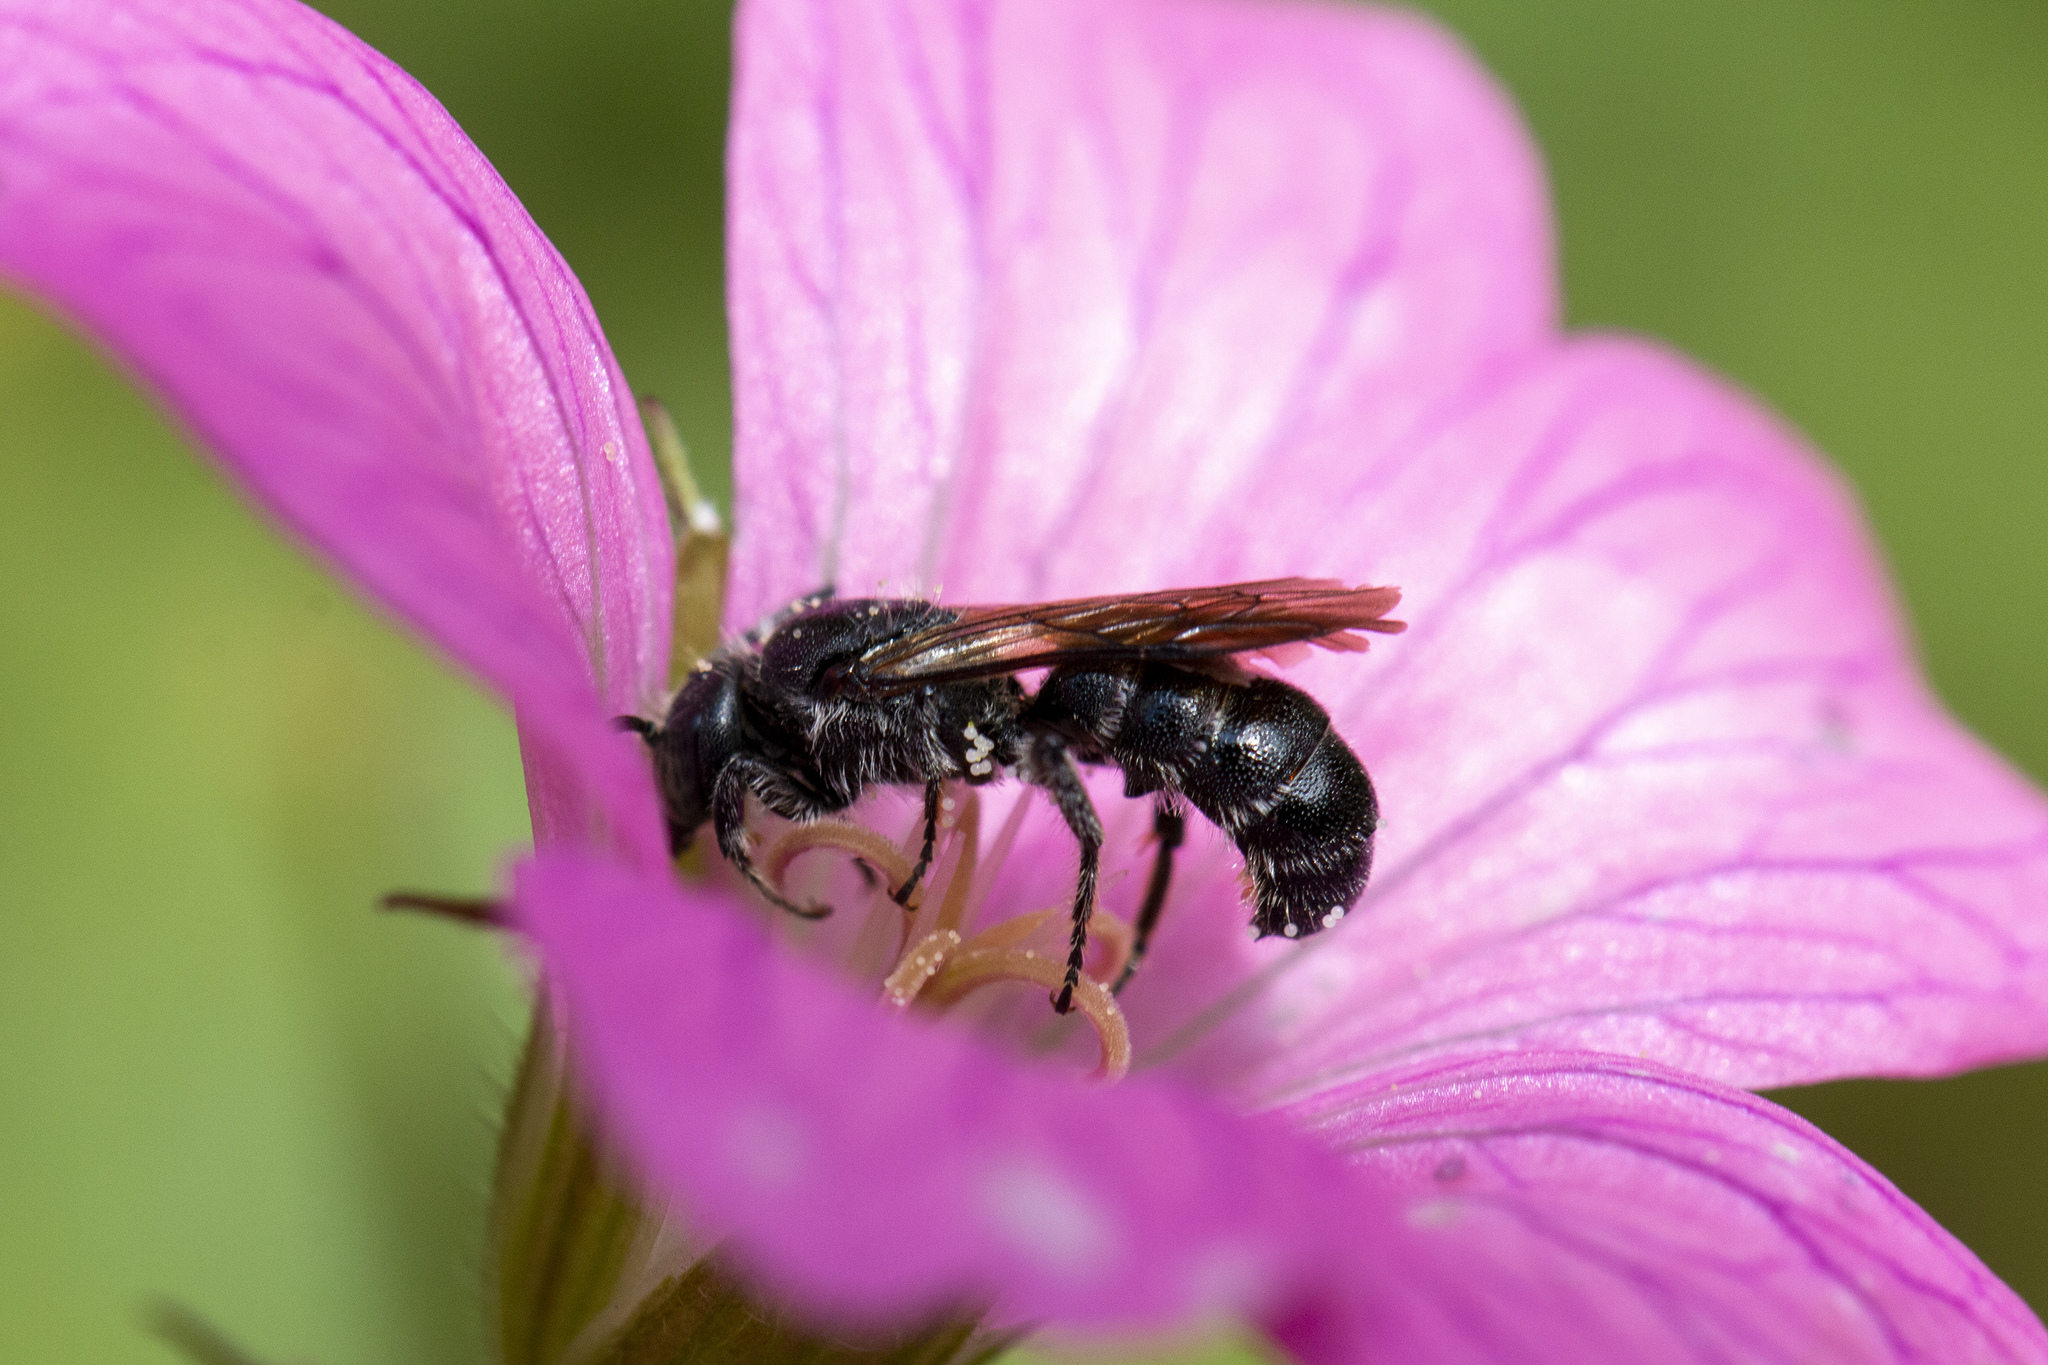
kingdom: Animalia
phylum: Arthropoda
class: Insecta
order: Hymenoptera
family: Megachilidae
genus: Chelostoma
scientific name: Chelostoma rapunculi
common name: Rampion scissor bee
